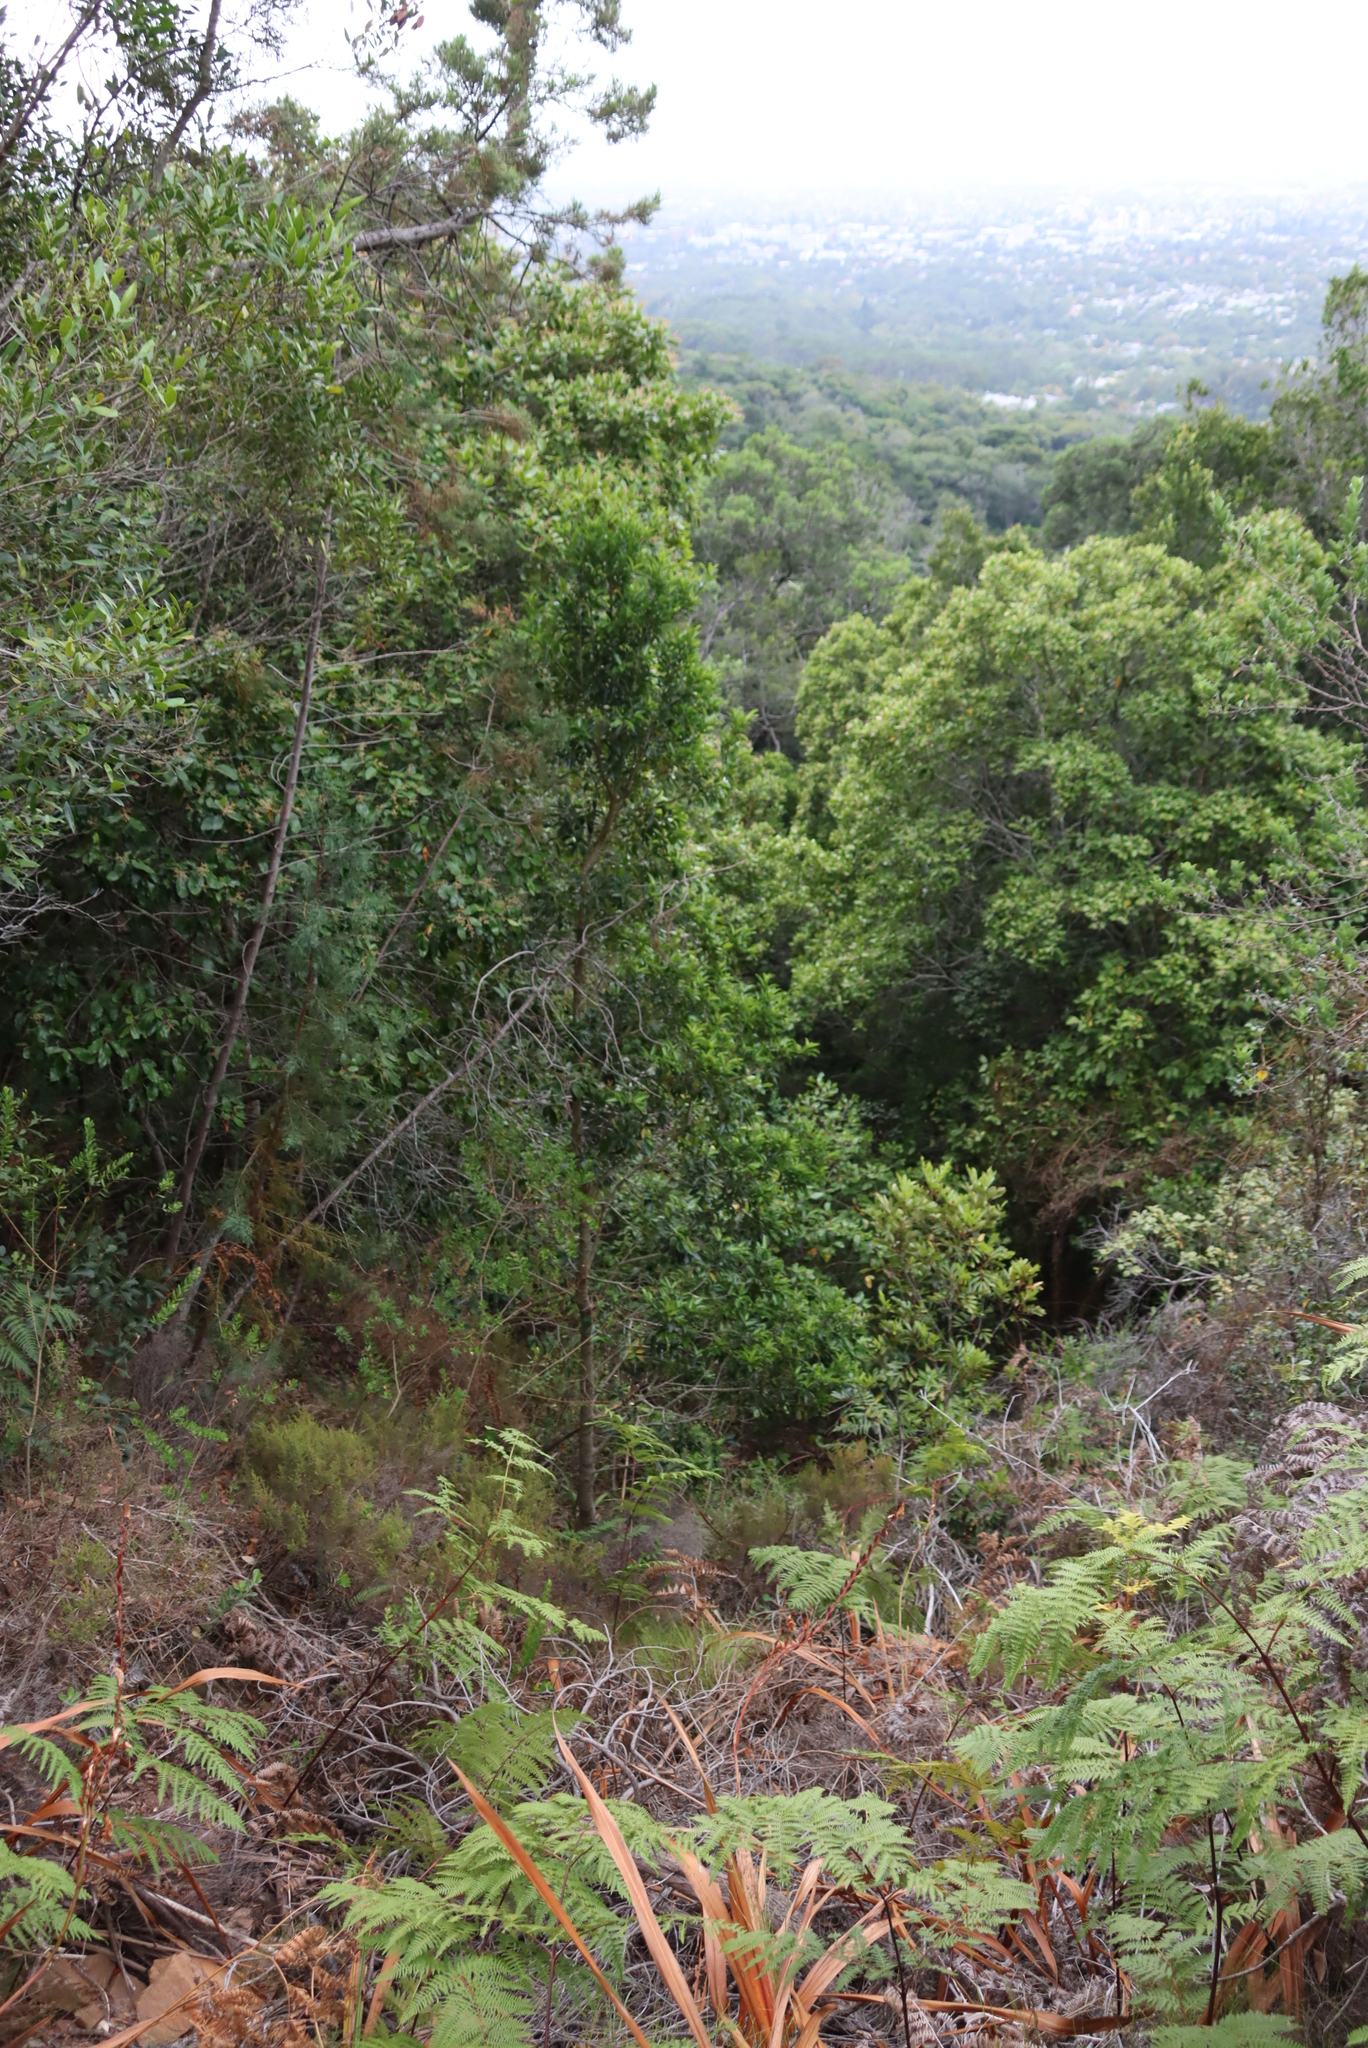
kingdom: Plantae
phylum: Tracheophyta
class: Magnoliopsida
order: Aquifoliales
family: Aquifoliaceae
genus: Ilex
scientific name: Ilex mitis
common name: African holly
